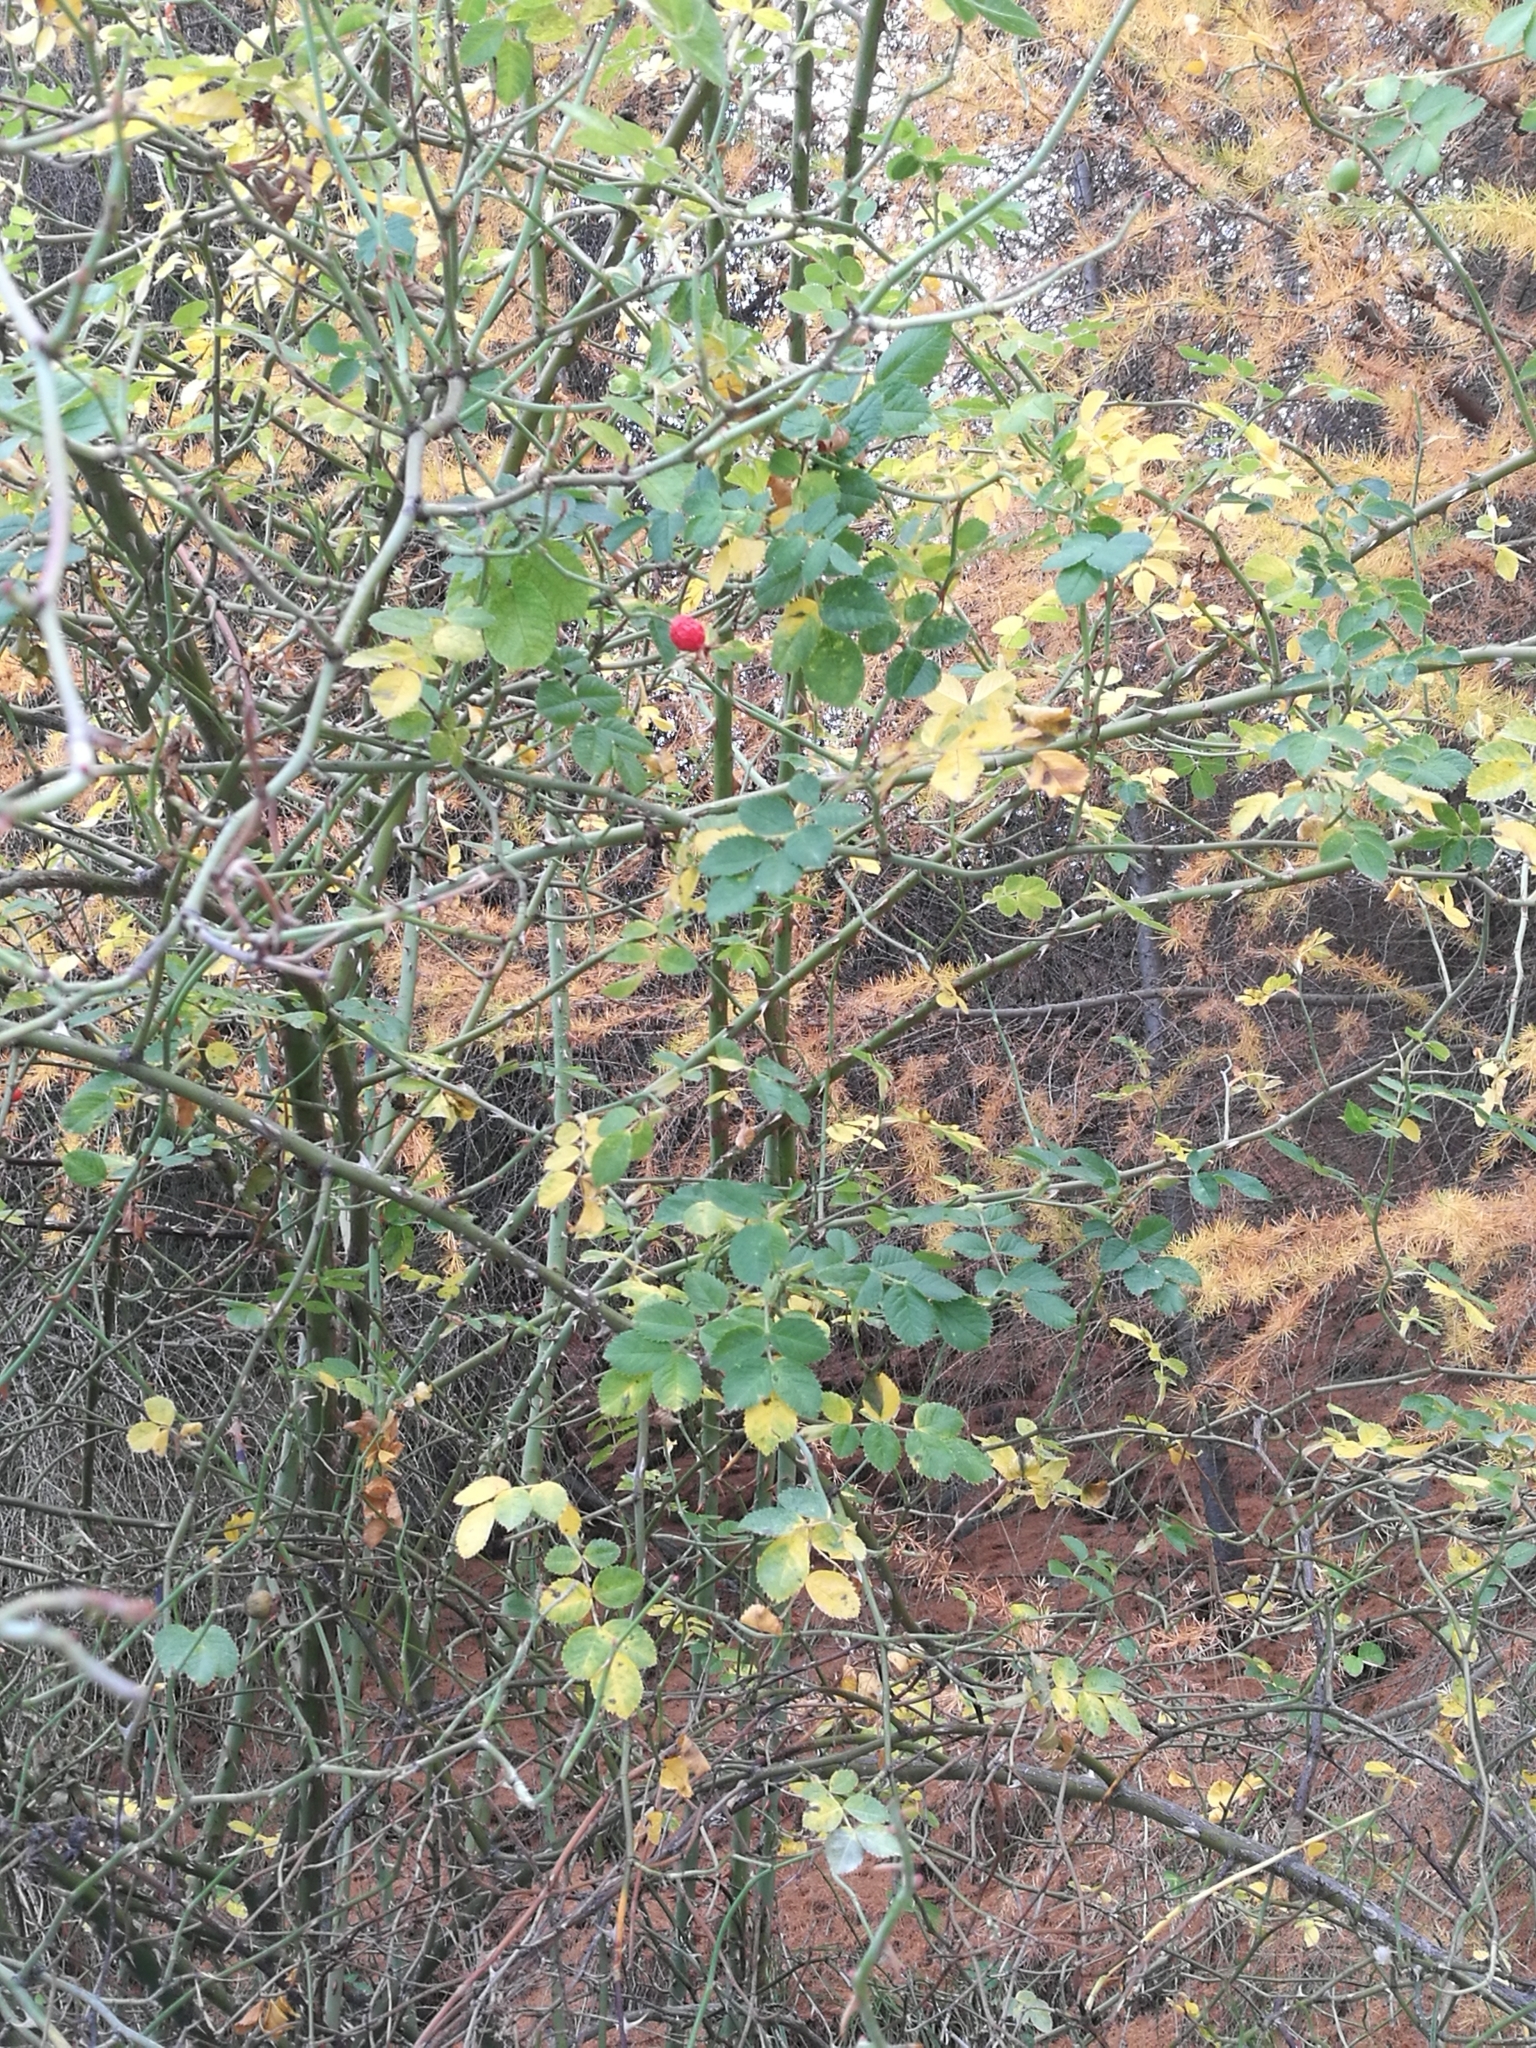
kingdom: Plantae
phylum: Tracheophyta
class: Magnoliopsida
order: Rosales
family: Rosaceae
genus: Rosa
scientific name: Rosa rubiginosa
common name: Sweet-briar
